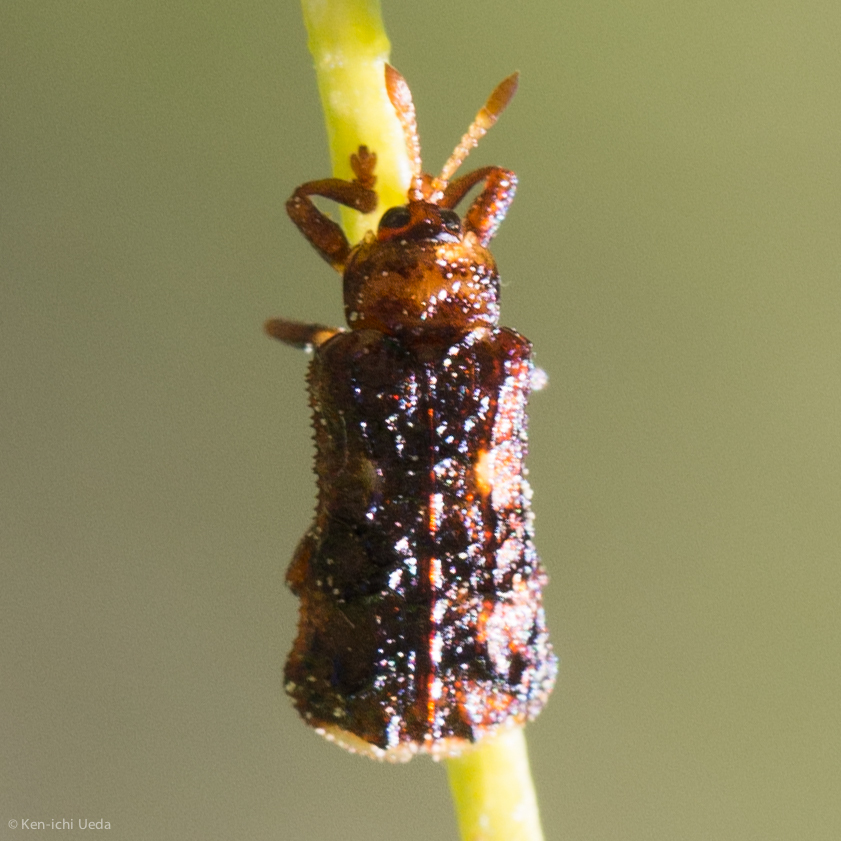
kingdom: Animalia
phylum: Arthropoda
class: Insecta
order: Coleoptera
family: Chrysomelidae
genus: Octotoma
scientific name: Octotoma marginicollis
